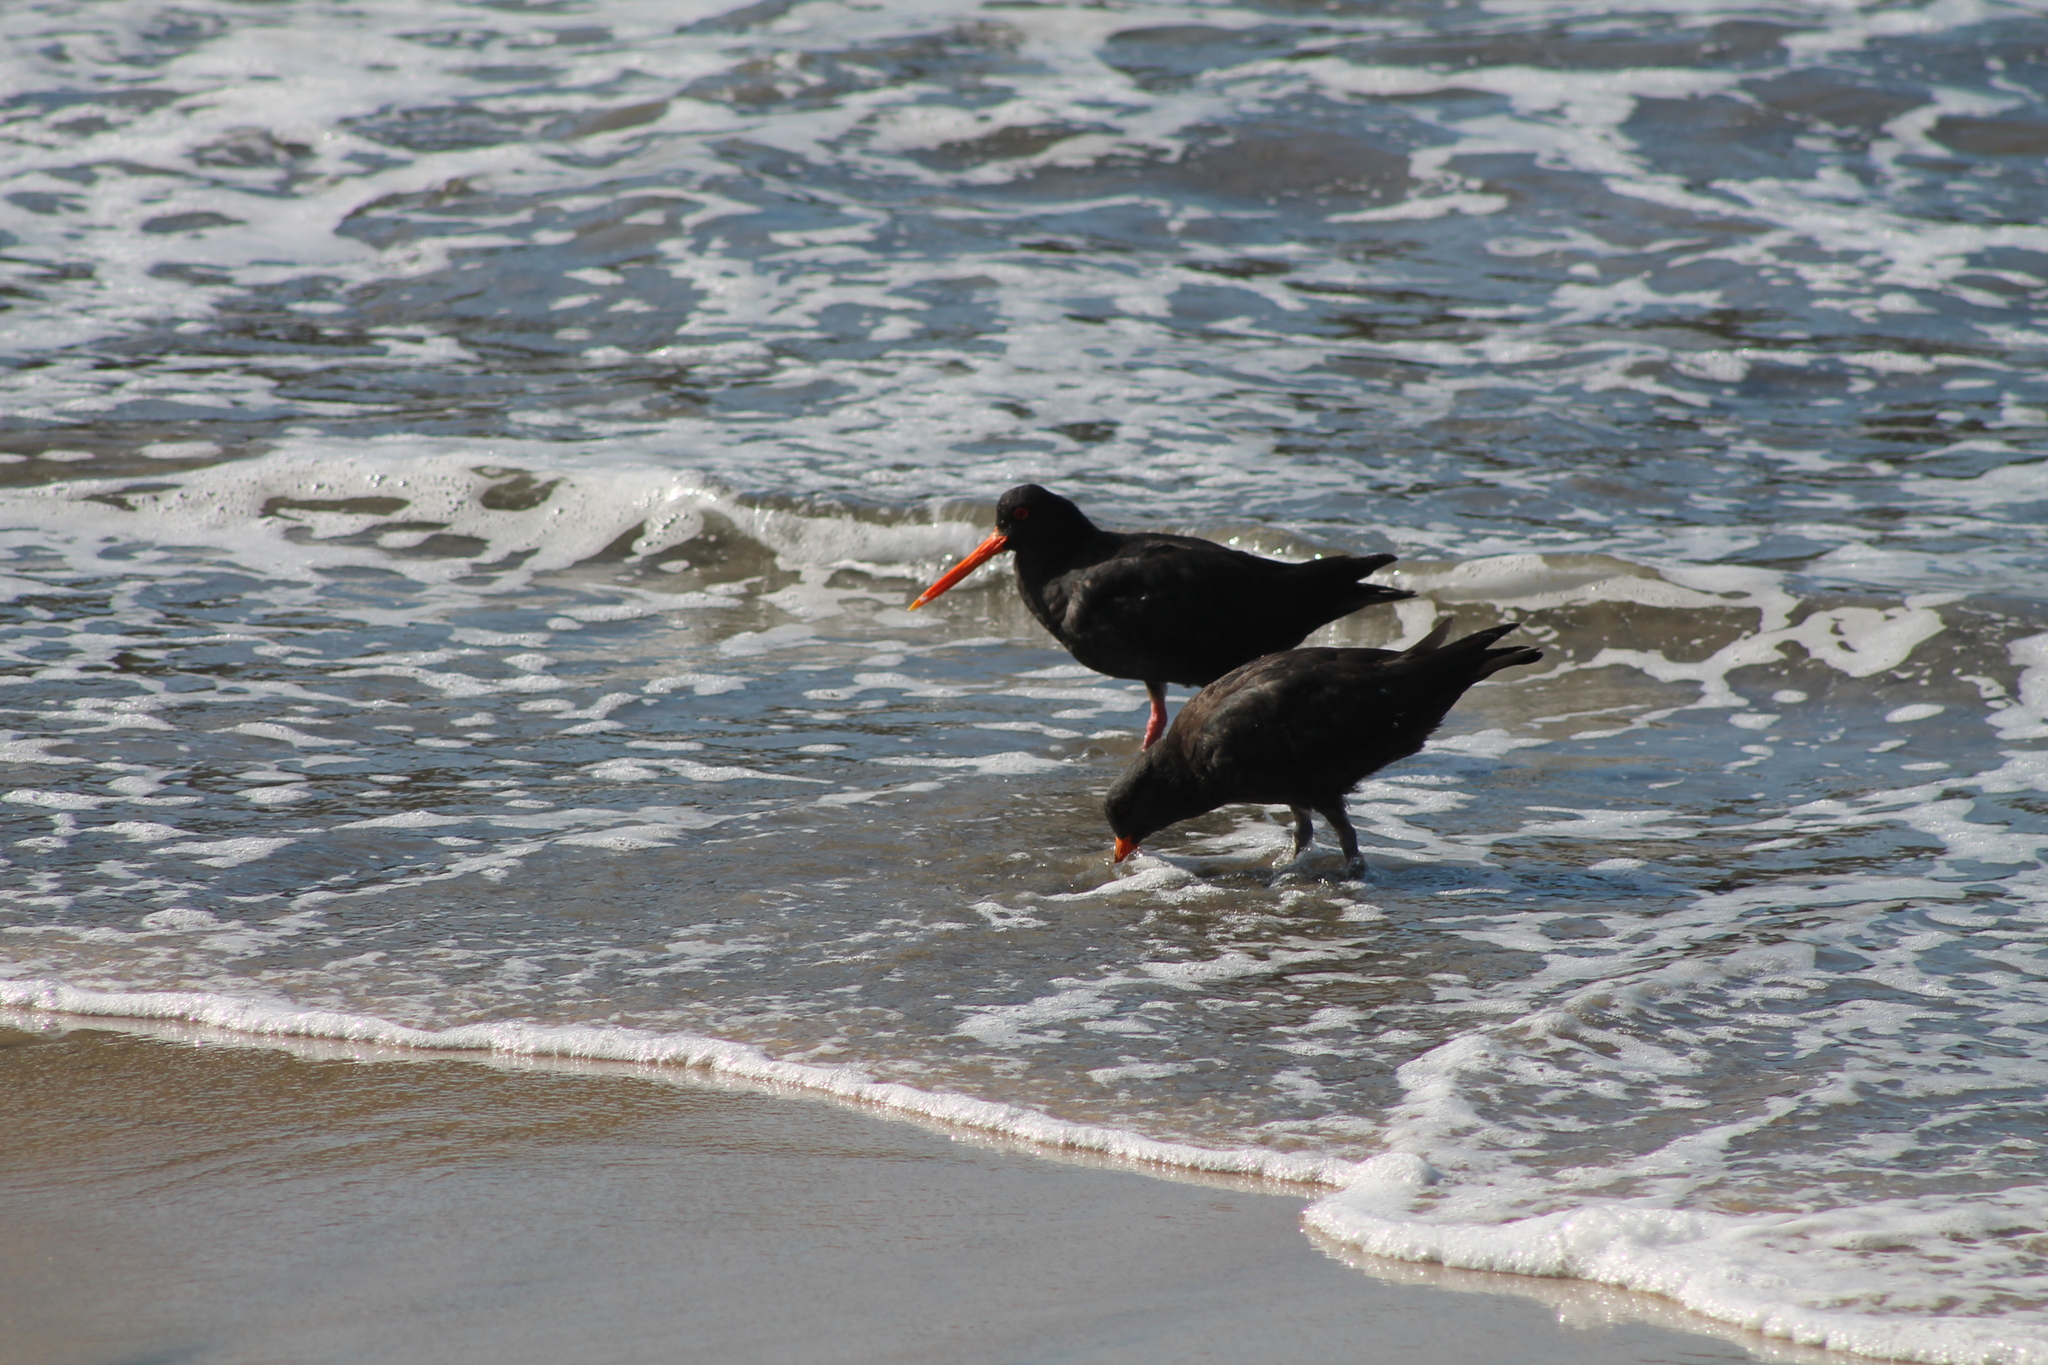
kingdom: Animalia
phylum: Chordata
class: Aves
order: Charadriiformes
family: Haematopodidae
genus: Haematopus
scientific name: Haematopus unicolor
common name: Variable oystercatcher
